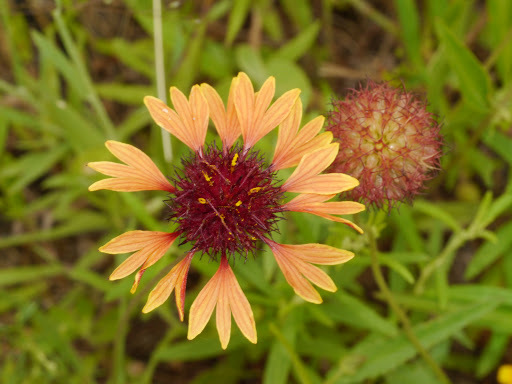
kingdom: Plantae
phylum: Tracheophyta
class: Magnoliopsida
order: Asterales
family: Asteraceae
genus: Gaillardia
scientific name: Gaillardia aestivalis
